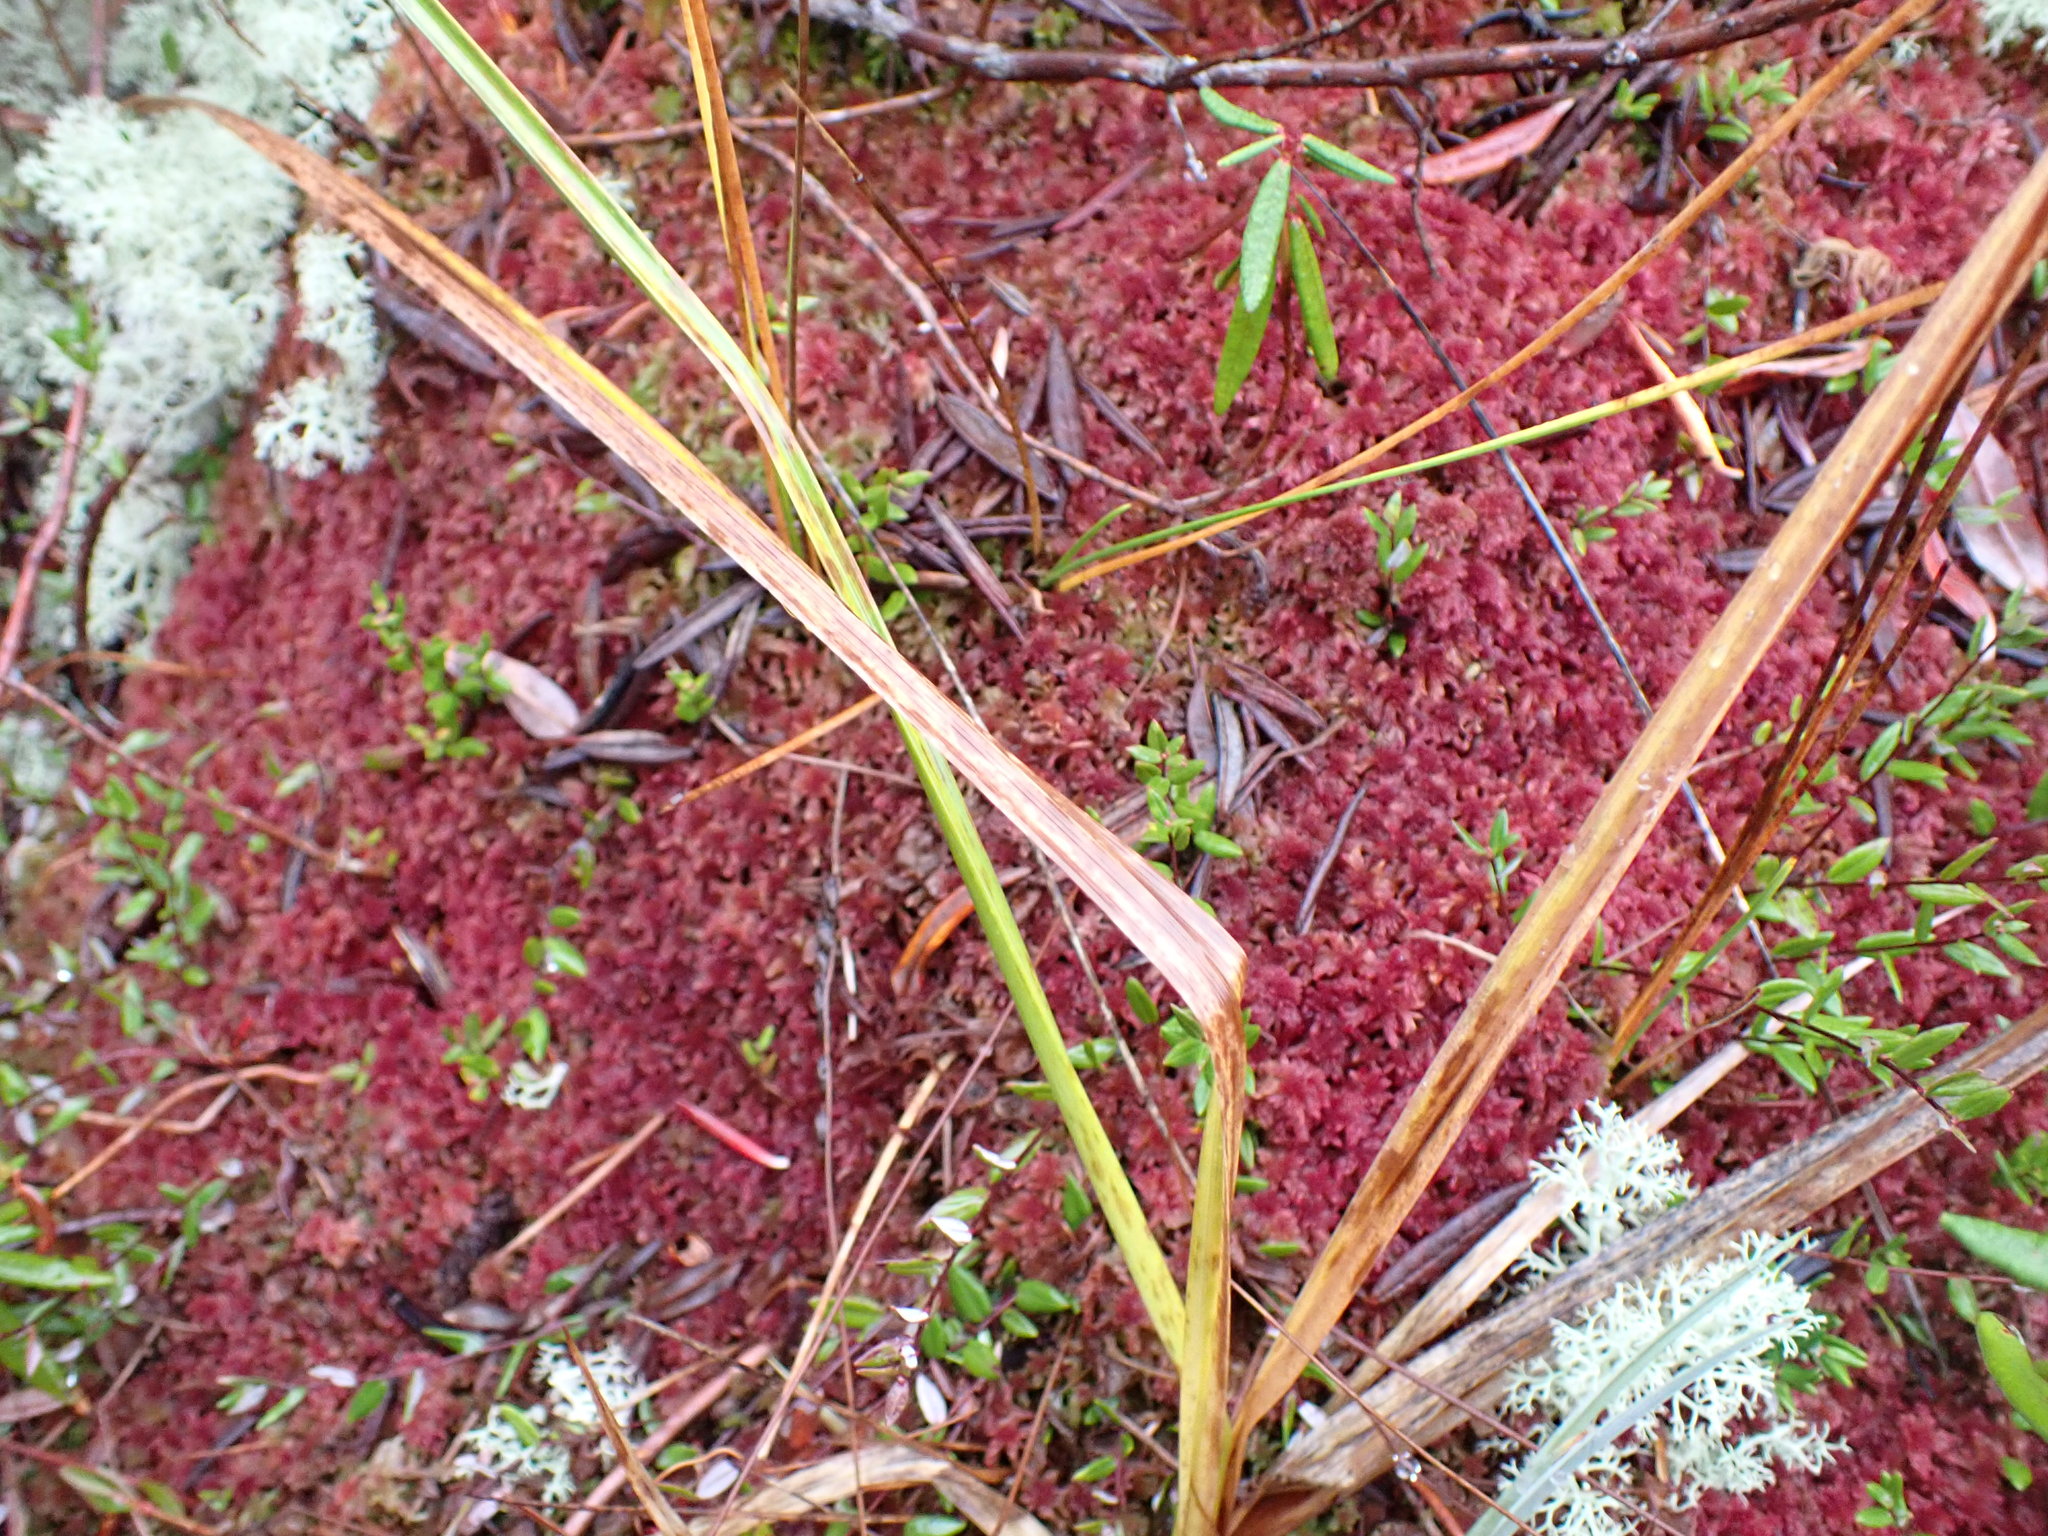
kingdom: Plantae
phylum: Bryophyta
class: Sphagnopsida
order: Sphagnales
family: Sphagnaceae
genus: Sphagnum
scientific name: Sphagnum capillifolium
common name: Small red peat moss
